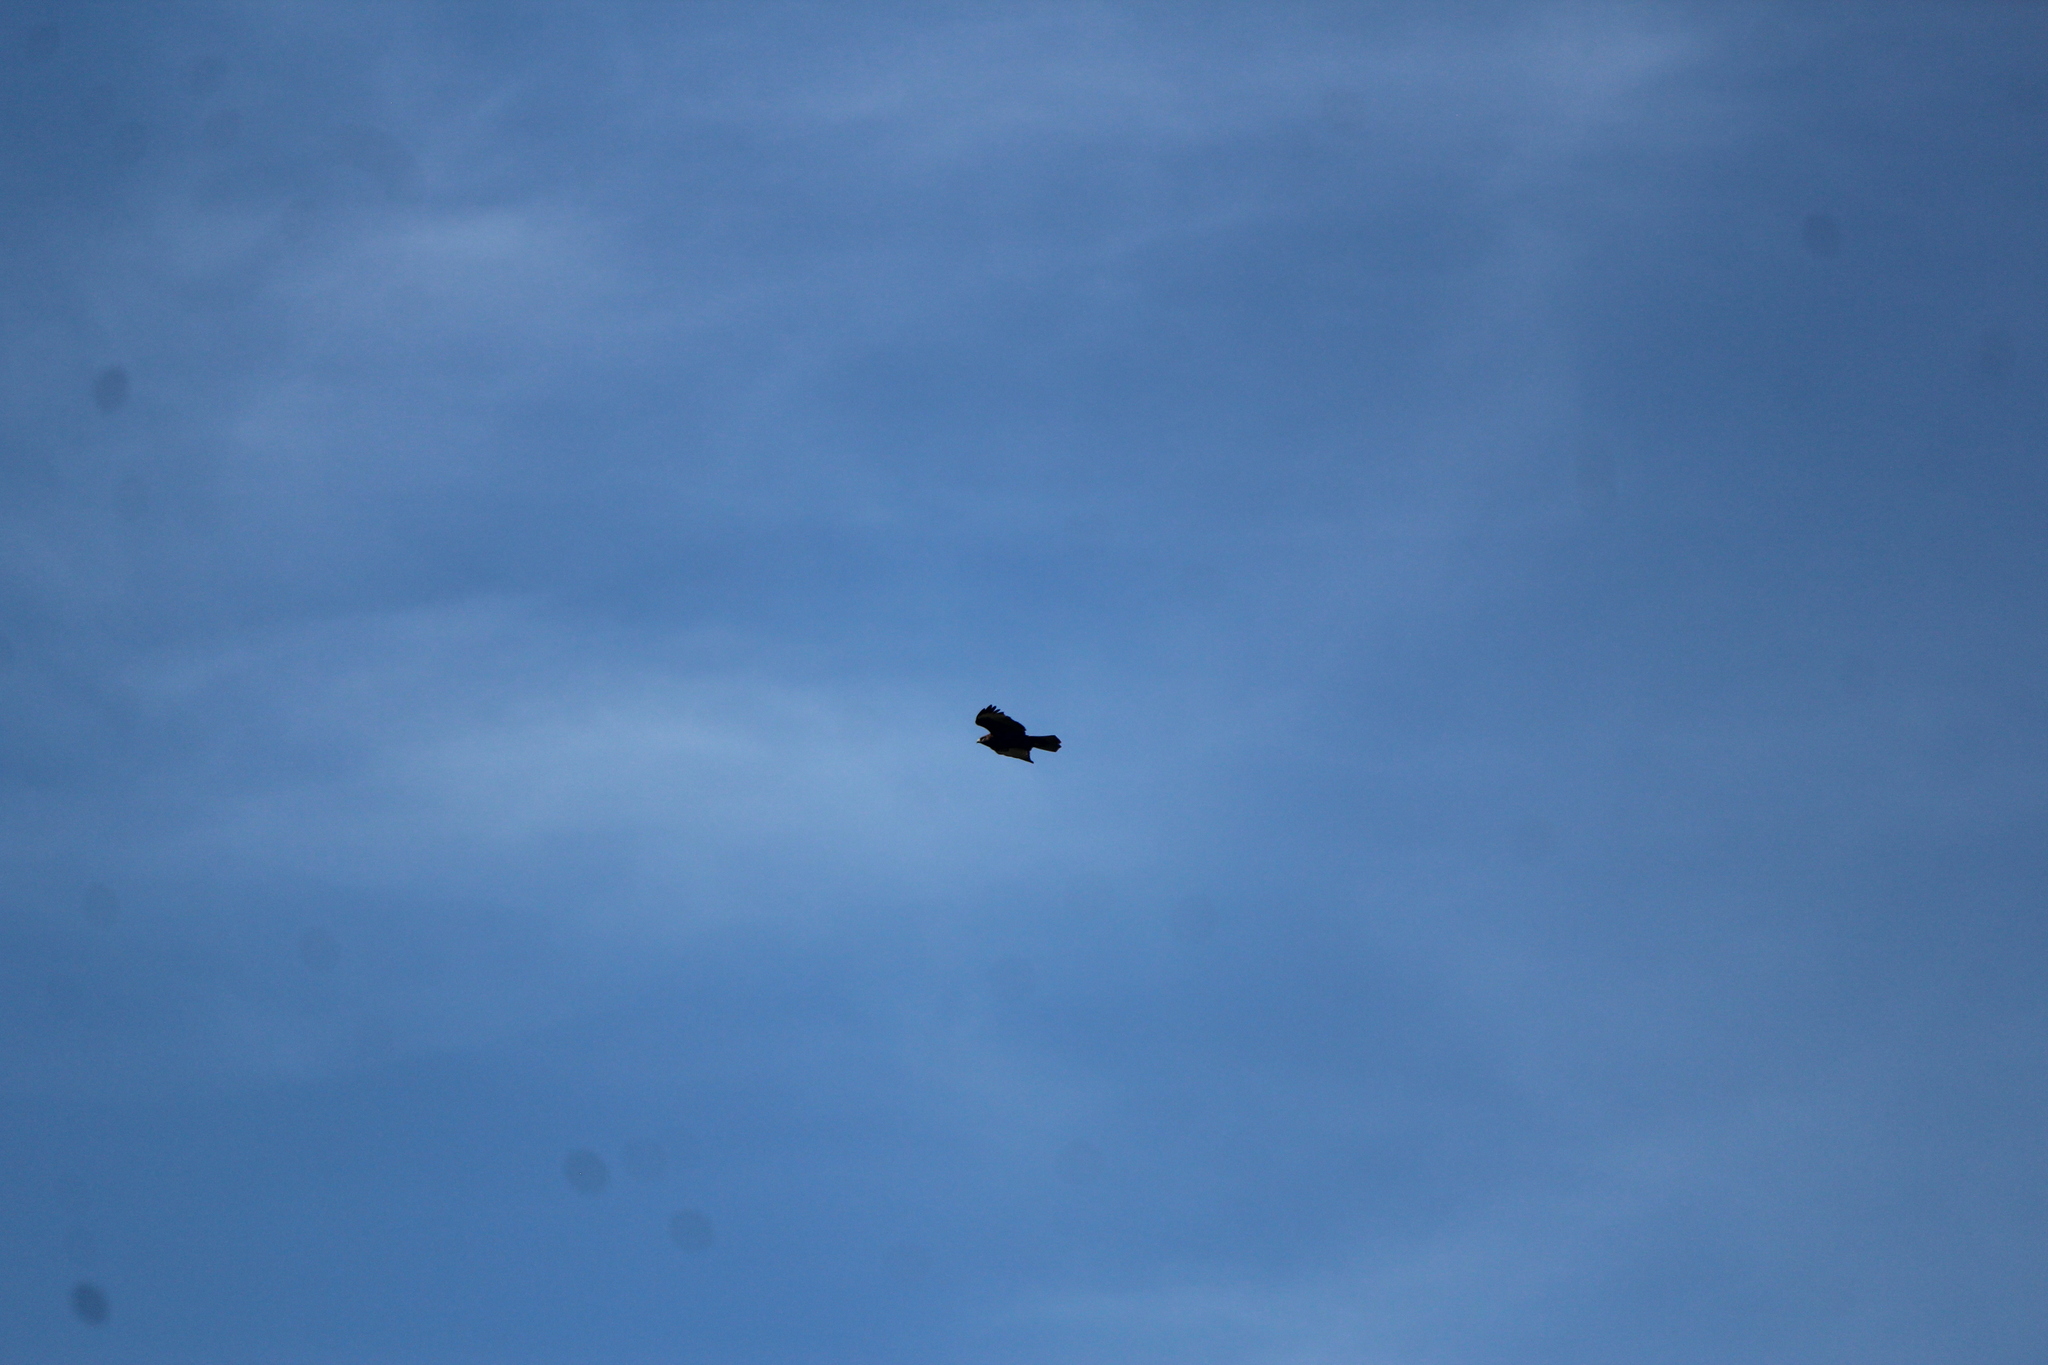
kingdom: Animalia
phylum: Chordata
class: Aves
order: Accipitriformes
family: Accipitridae
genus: Buteo
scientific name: Buteo brachyurus
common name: Short-tailed hawk
